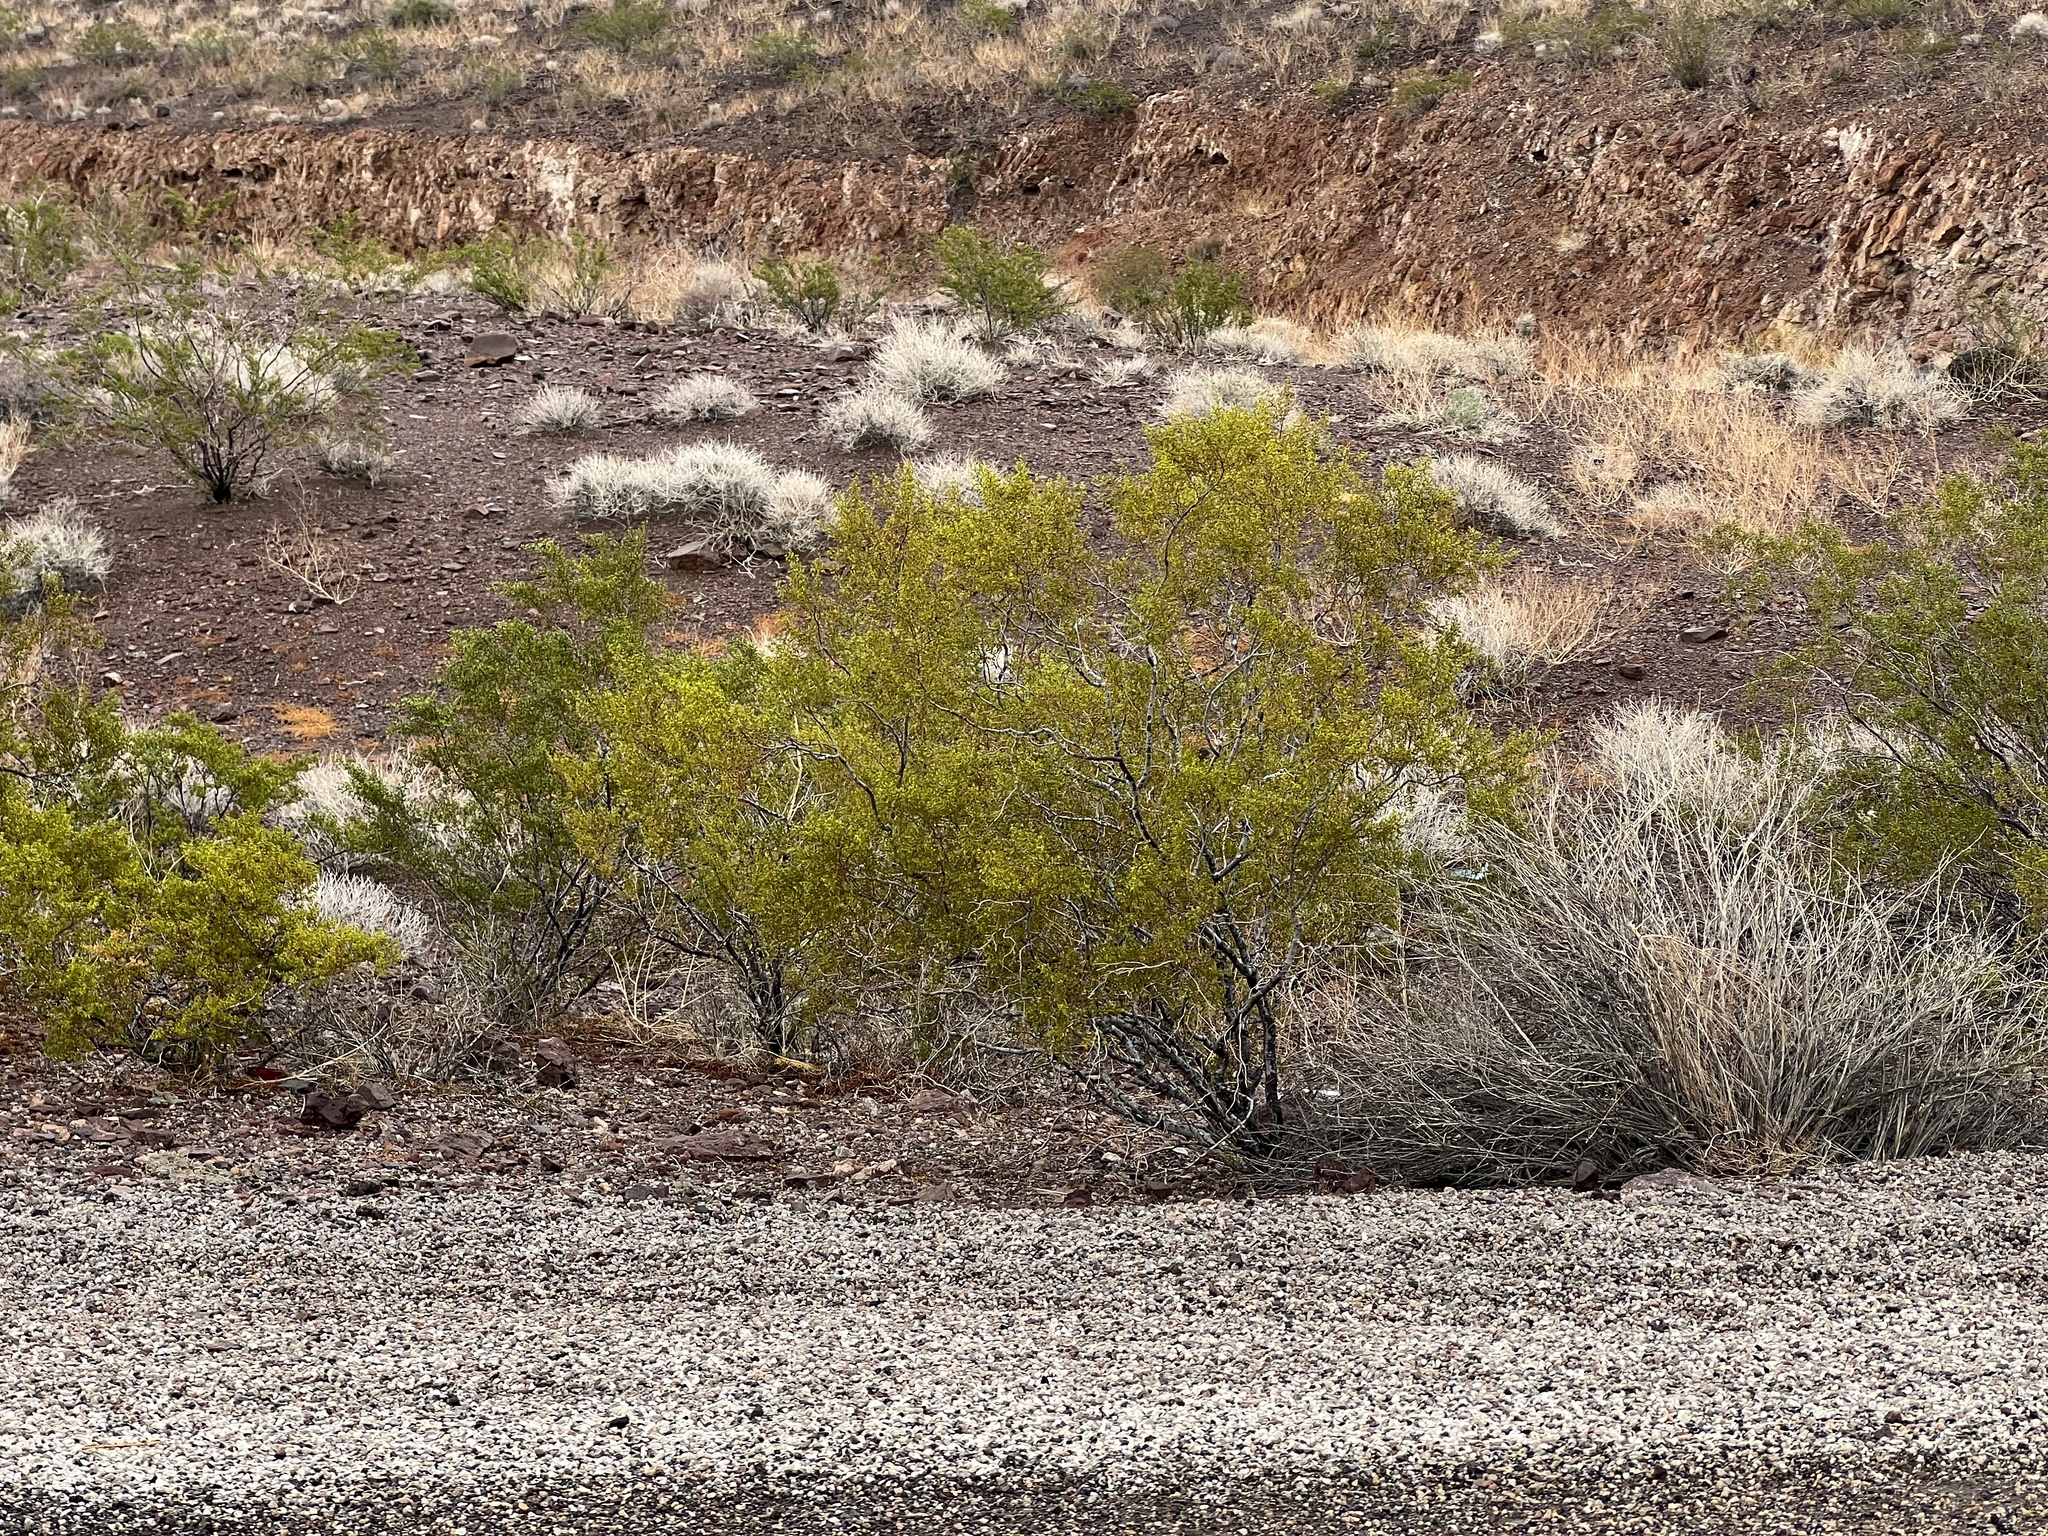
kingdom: Plantae
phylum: Tracheophyta
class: Magnoliopsida
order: Zygophyllales
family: Zygophyllaceae
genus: Larrea
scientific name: Larrea tridentata
